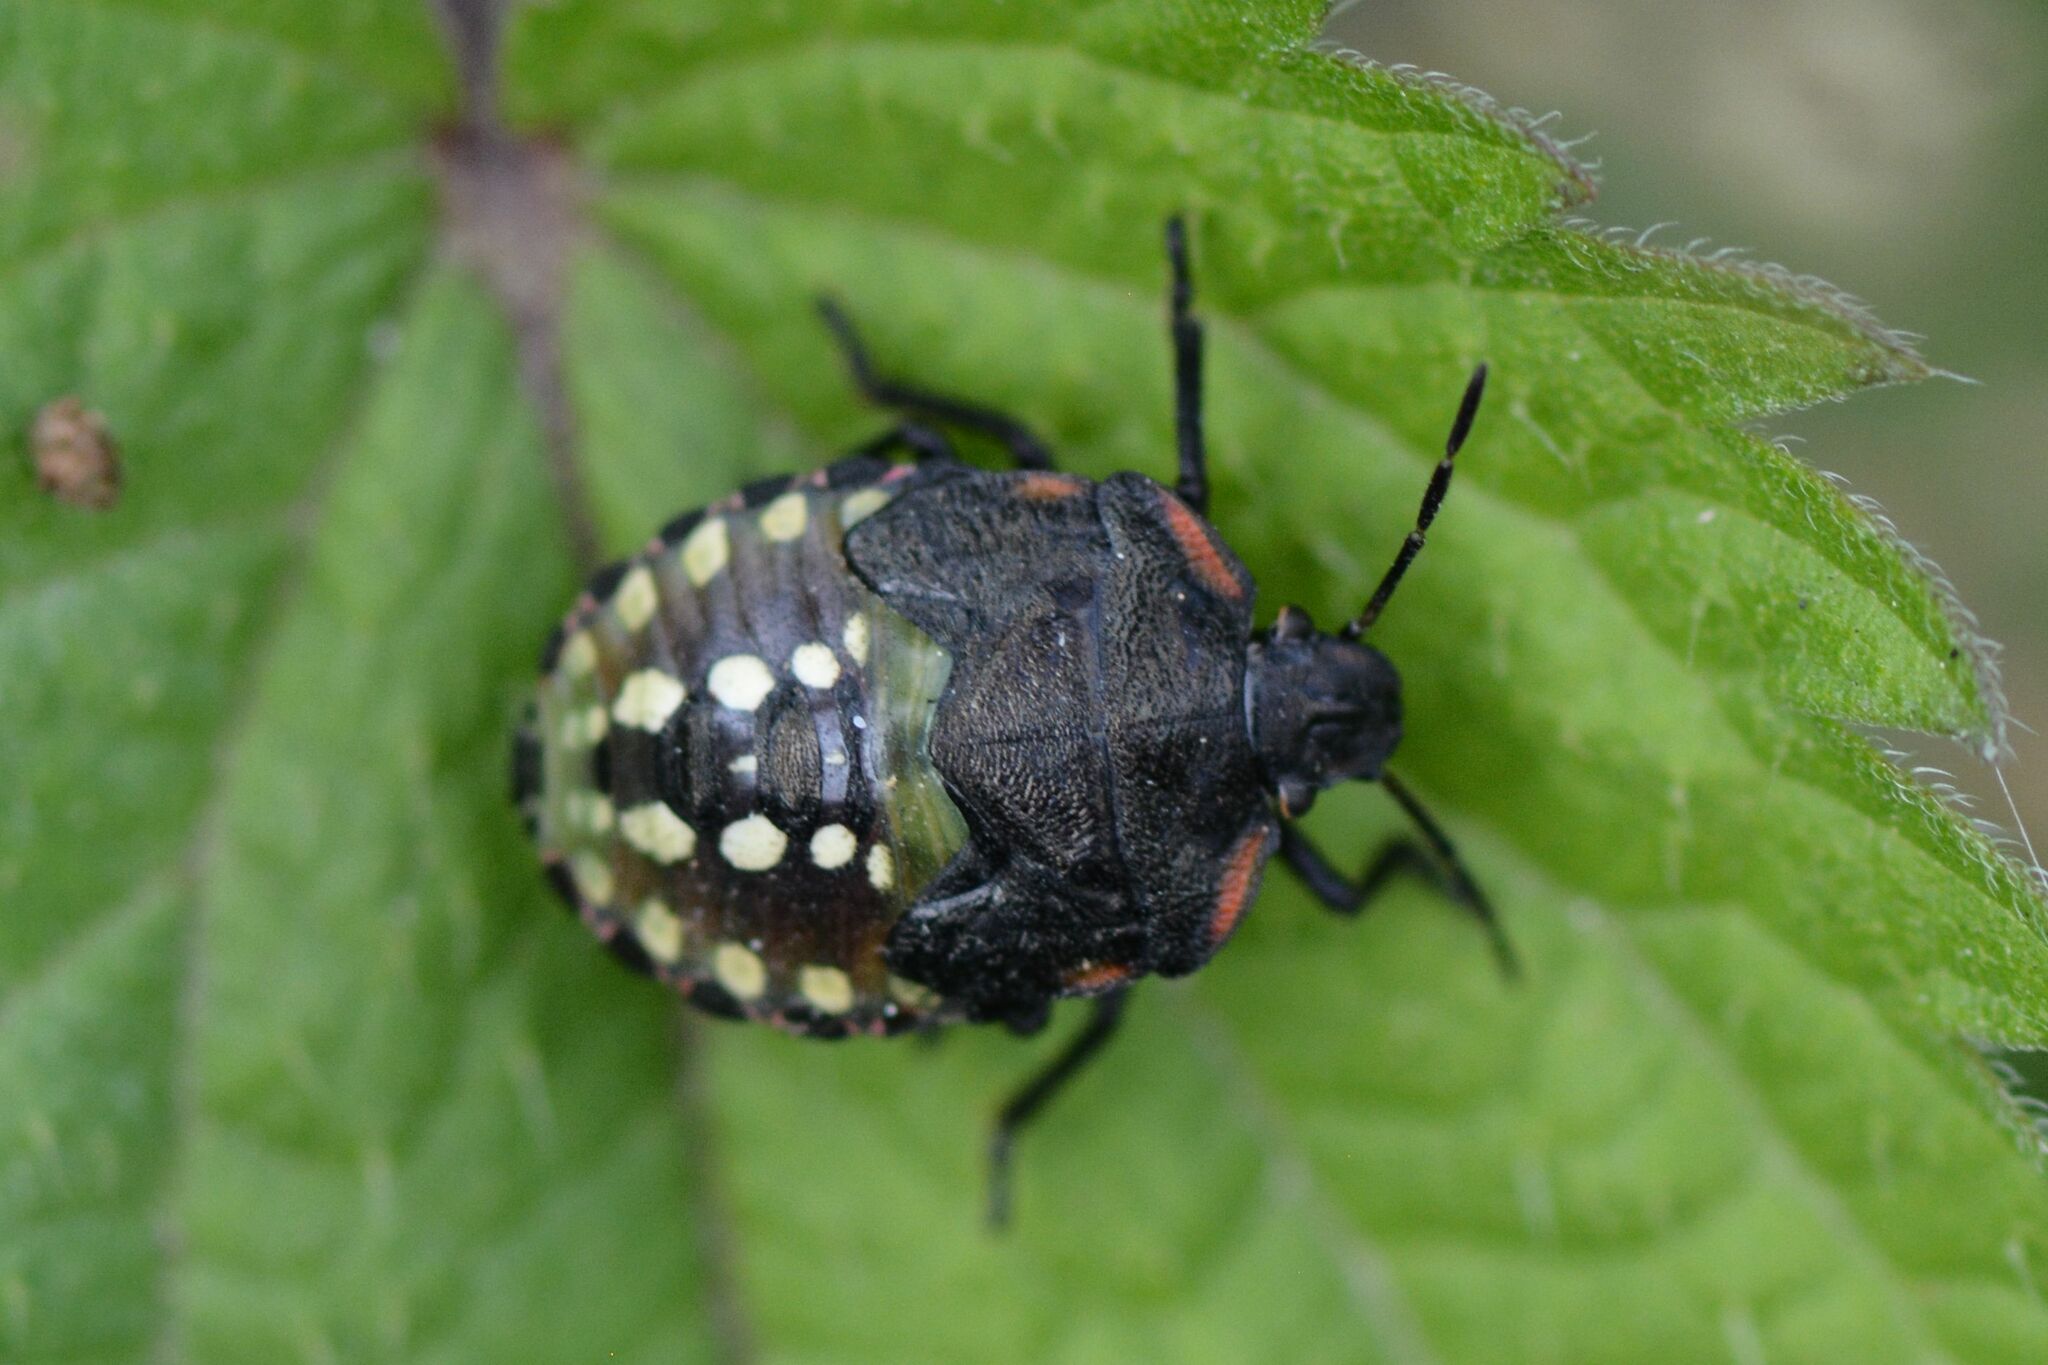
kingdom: Animalia
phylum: Arthropoda
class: Insecta
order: Hemiptera
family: Pentatomidae
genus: Nezara
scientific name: Nezara viridula
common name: Southern green stink bug
